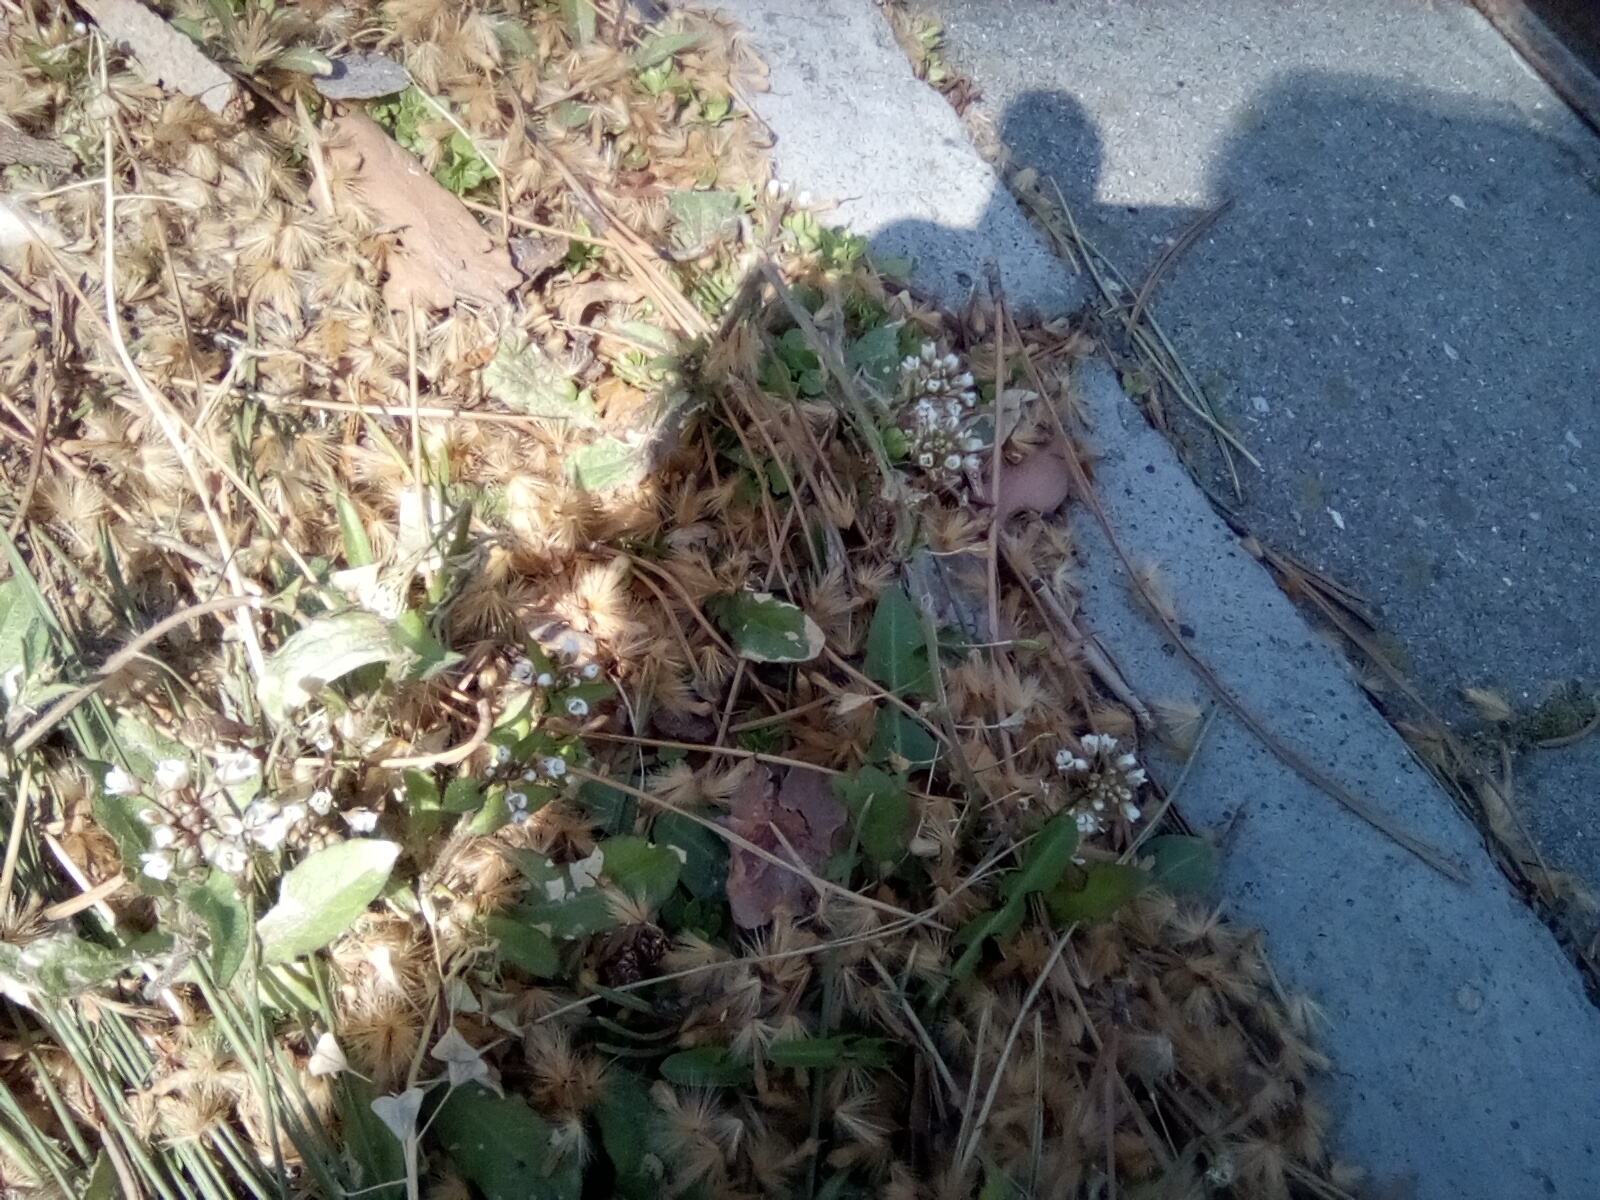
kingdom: Plantae
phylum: Tracheophyta
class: Magnoliopsida
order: Brassicales
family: Brassicaceae
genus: Capsella
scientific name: Capsella bursa-pastoris
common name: Shepherd's purse
